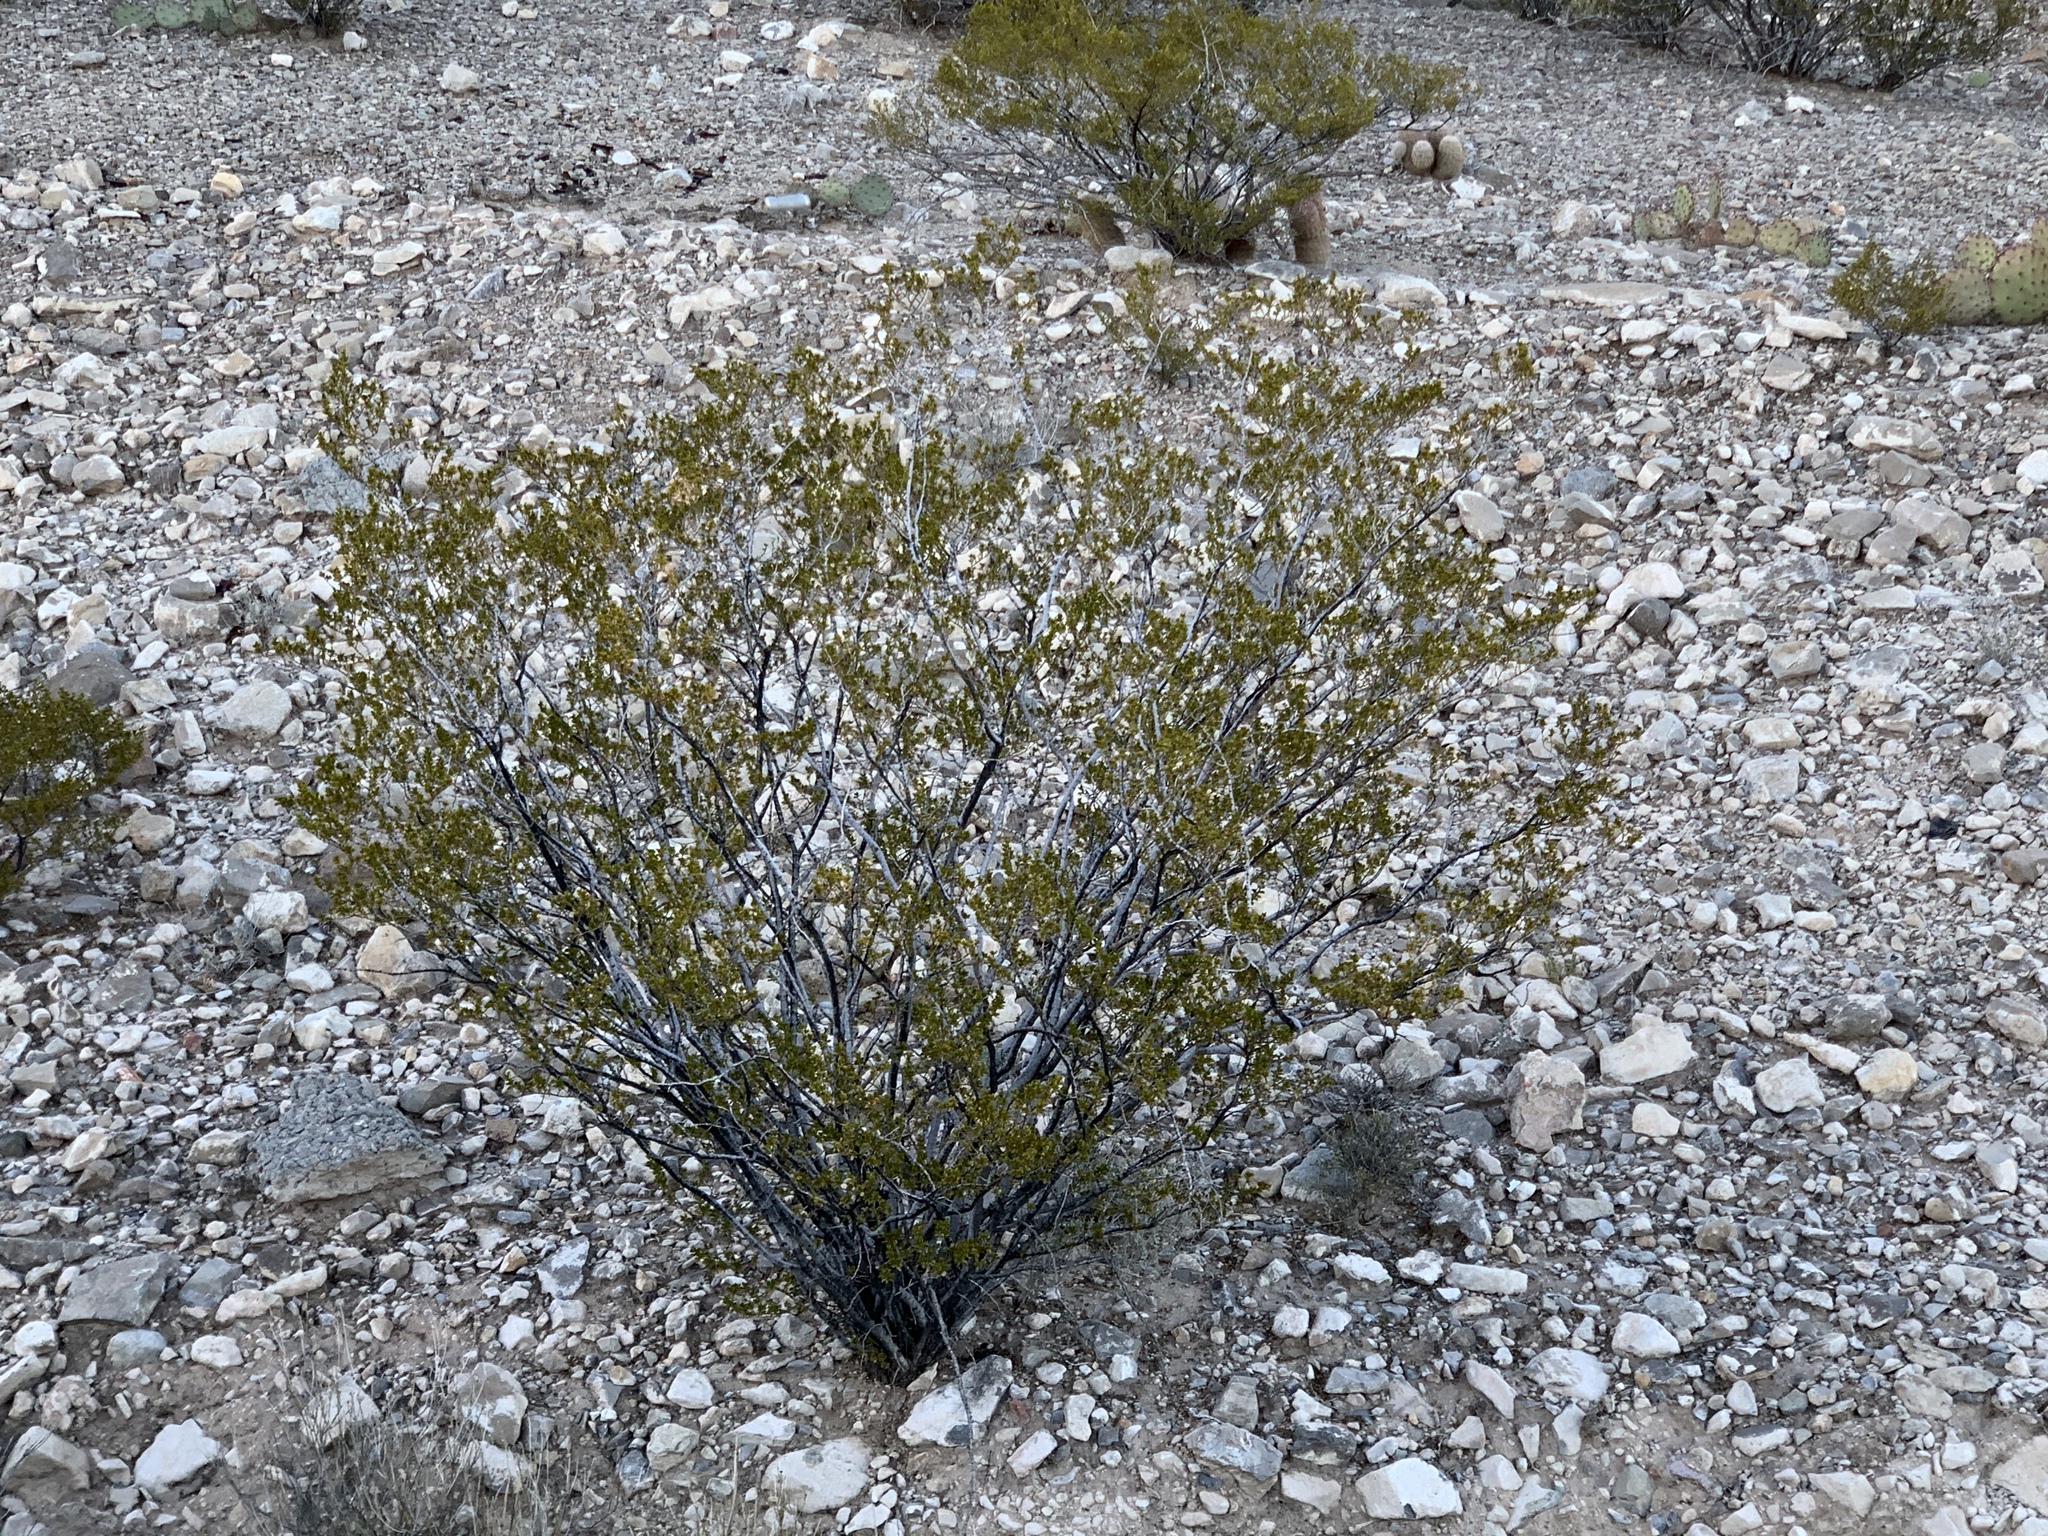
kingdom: Plantae
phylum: Tracheophyta
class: Magnoliopsida
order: Zygophyllales
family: Zygophyllaceae
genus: Larrea
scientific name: Larrea tridentata
